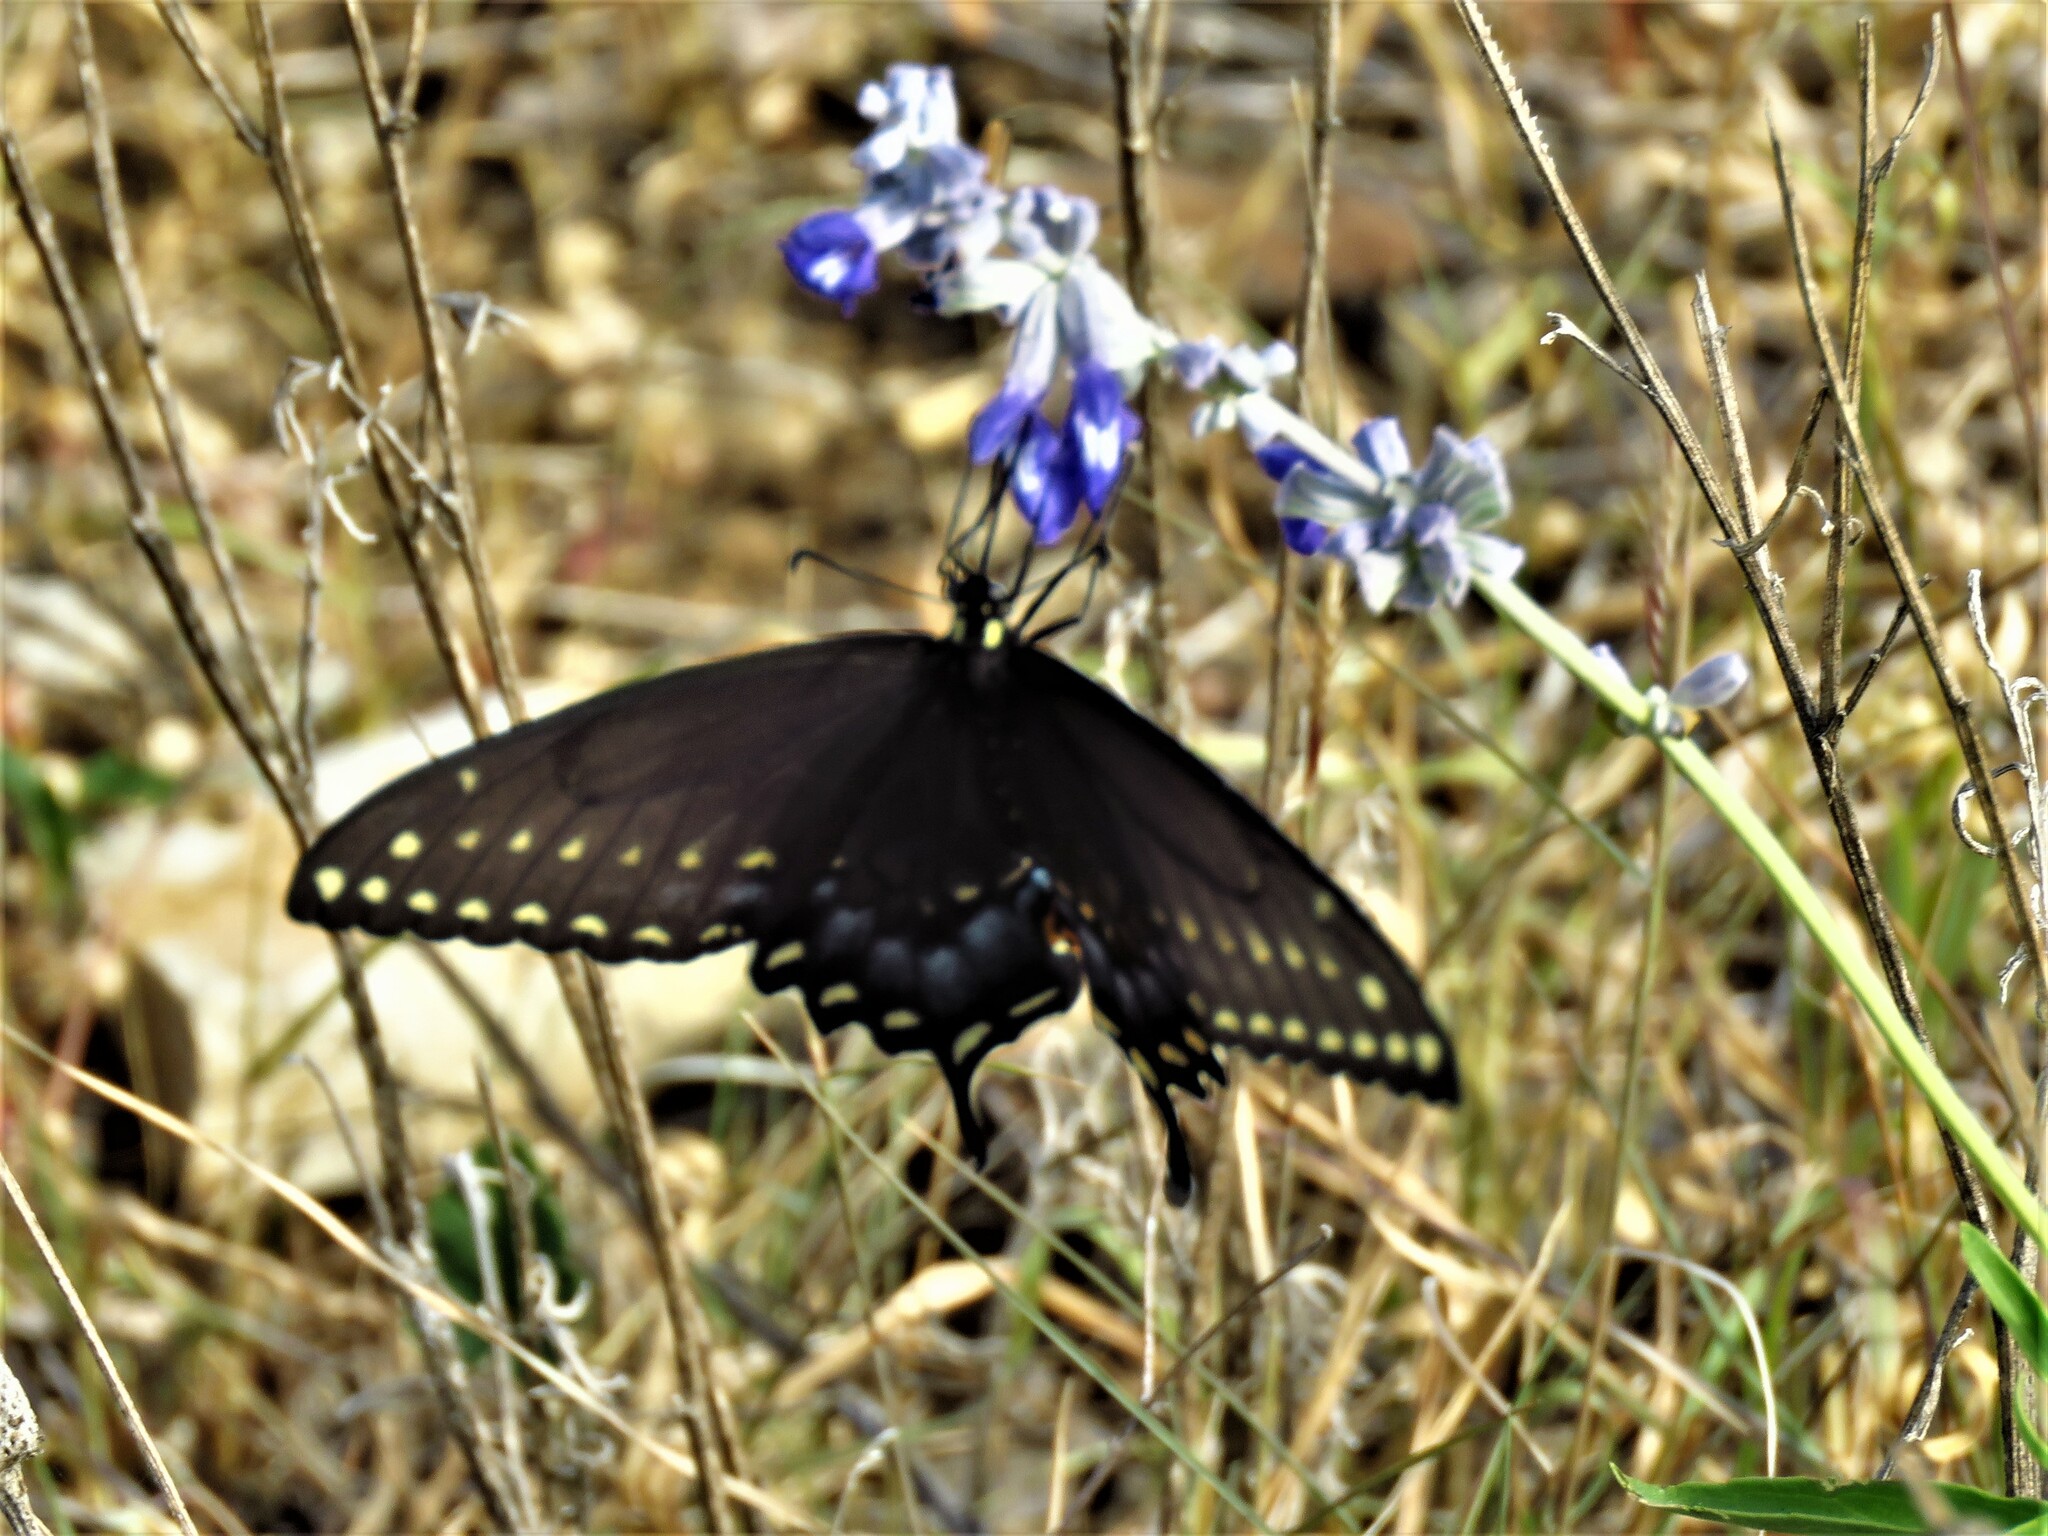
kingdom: Animalia
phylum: Arthropoda
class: Insecta
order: Lepidoptera
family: Papilionidae
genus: Papilio
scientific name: Papilio polyxenes
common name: Black swallowtail
